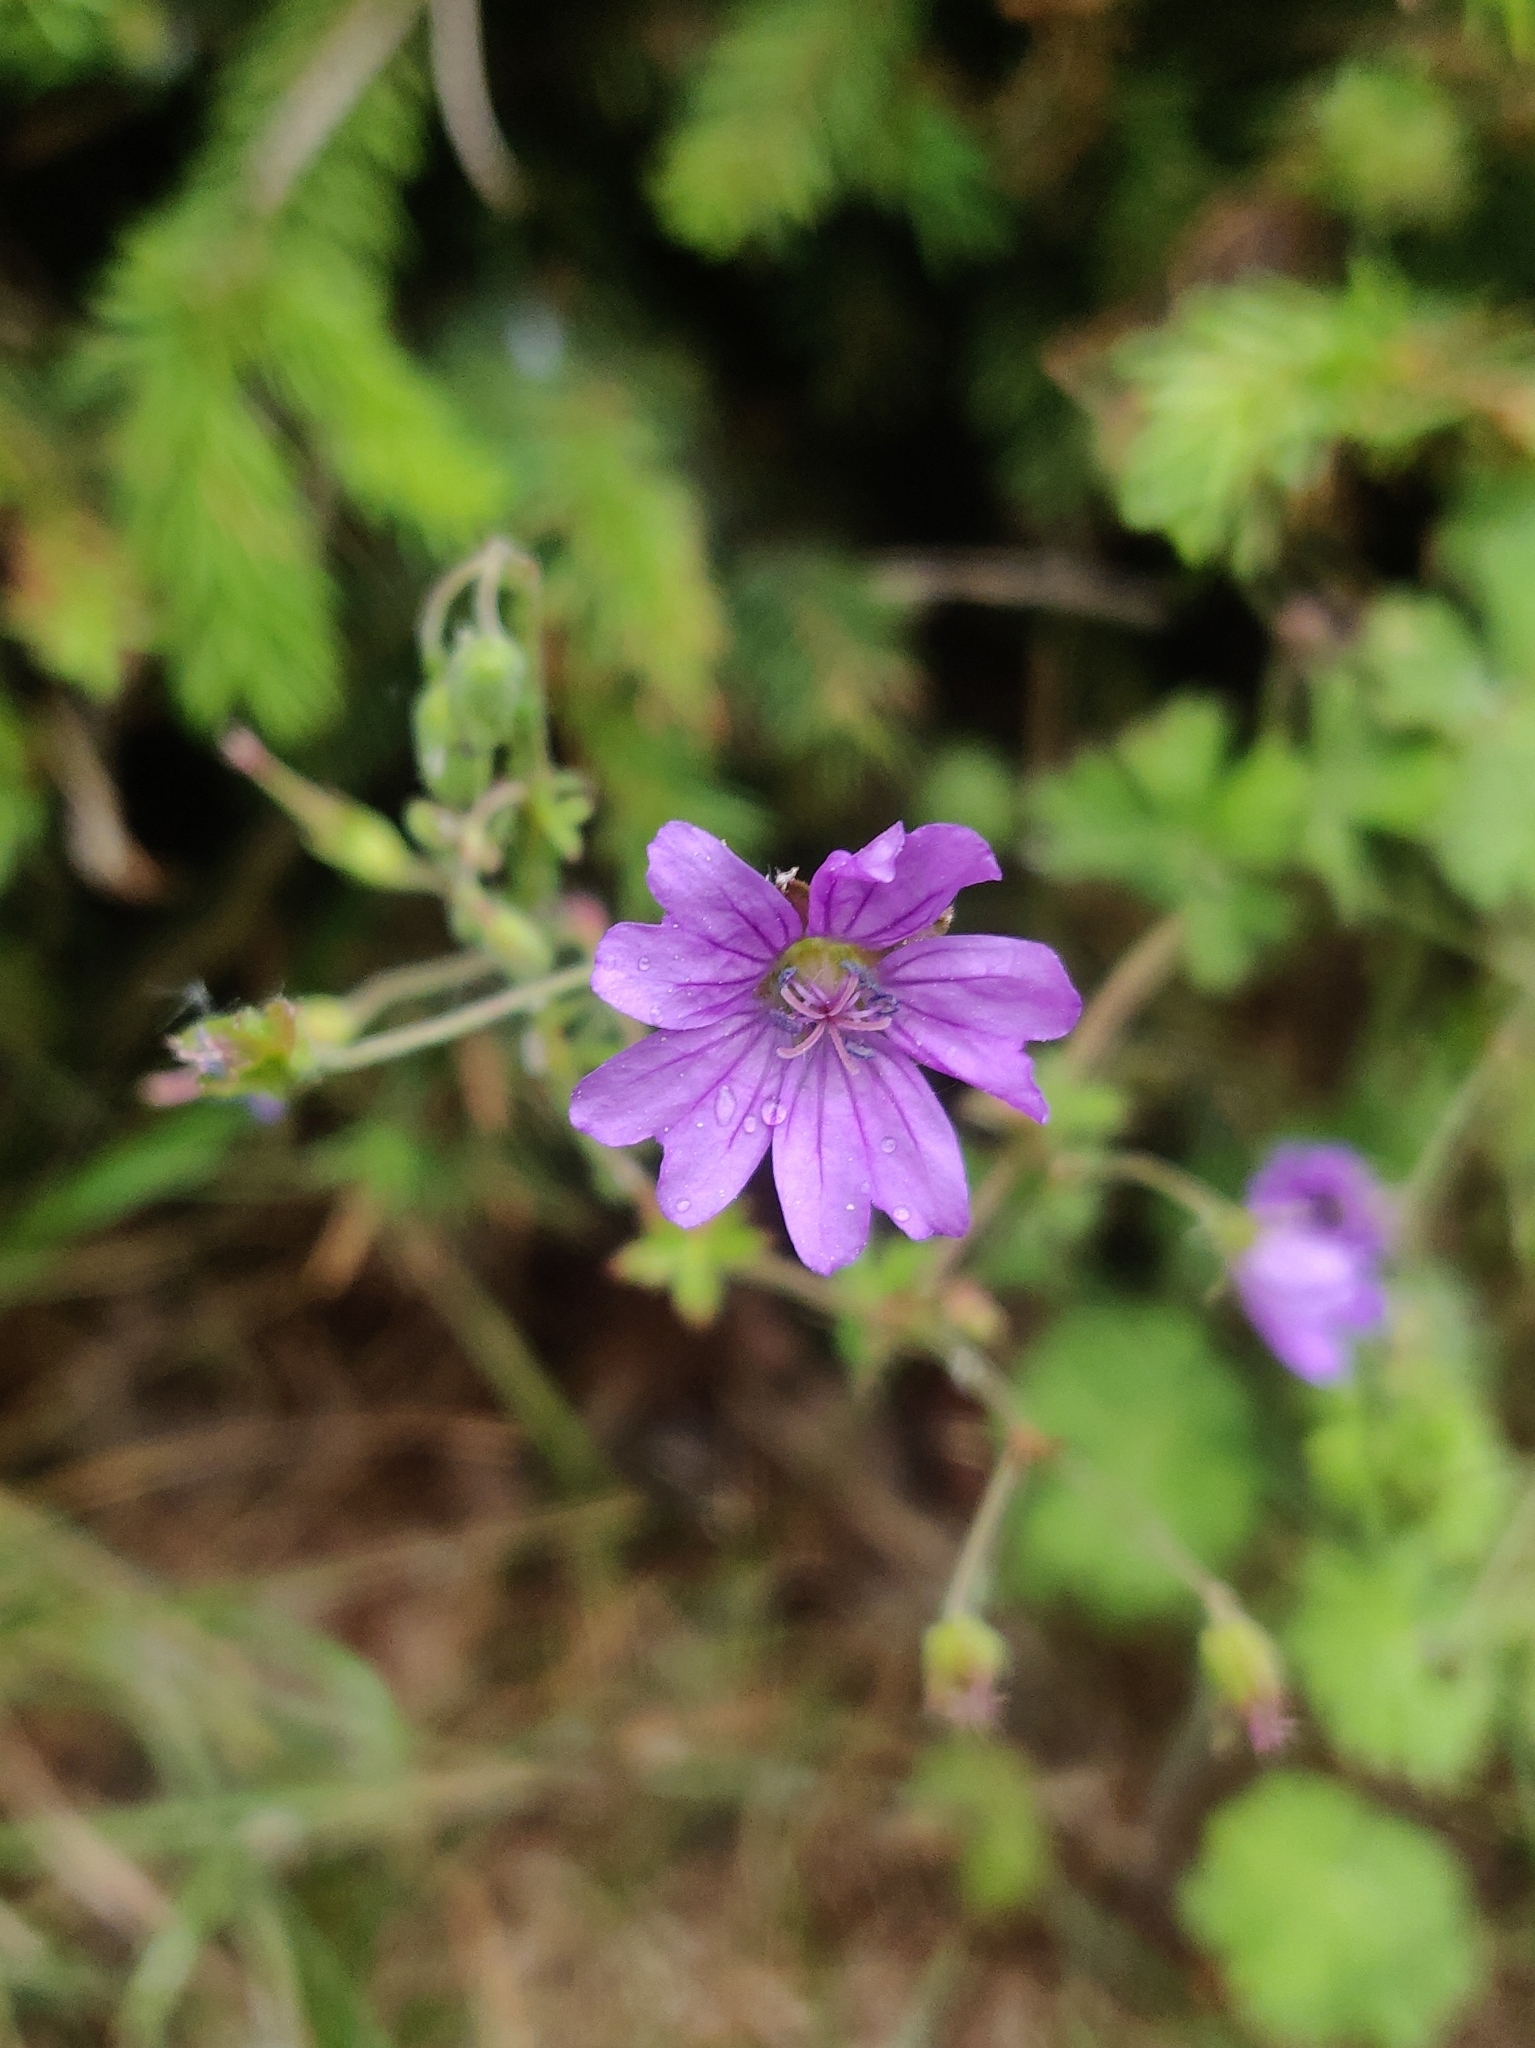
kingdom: Plantae
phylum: Tracheophyta
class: Magnoliopsida
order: Geraniales
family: Geraniaceae
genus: Geranium
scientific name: Geranium pyrenaicum
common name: Hedgerow crane's-bill
